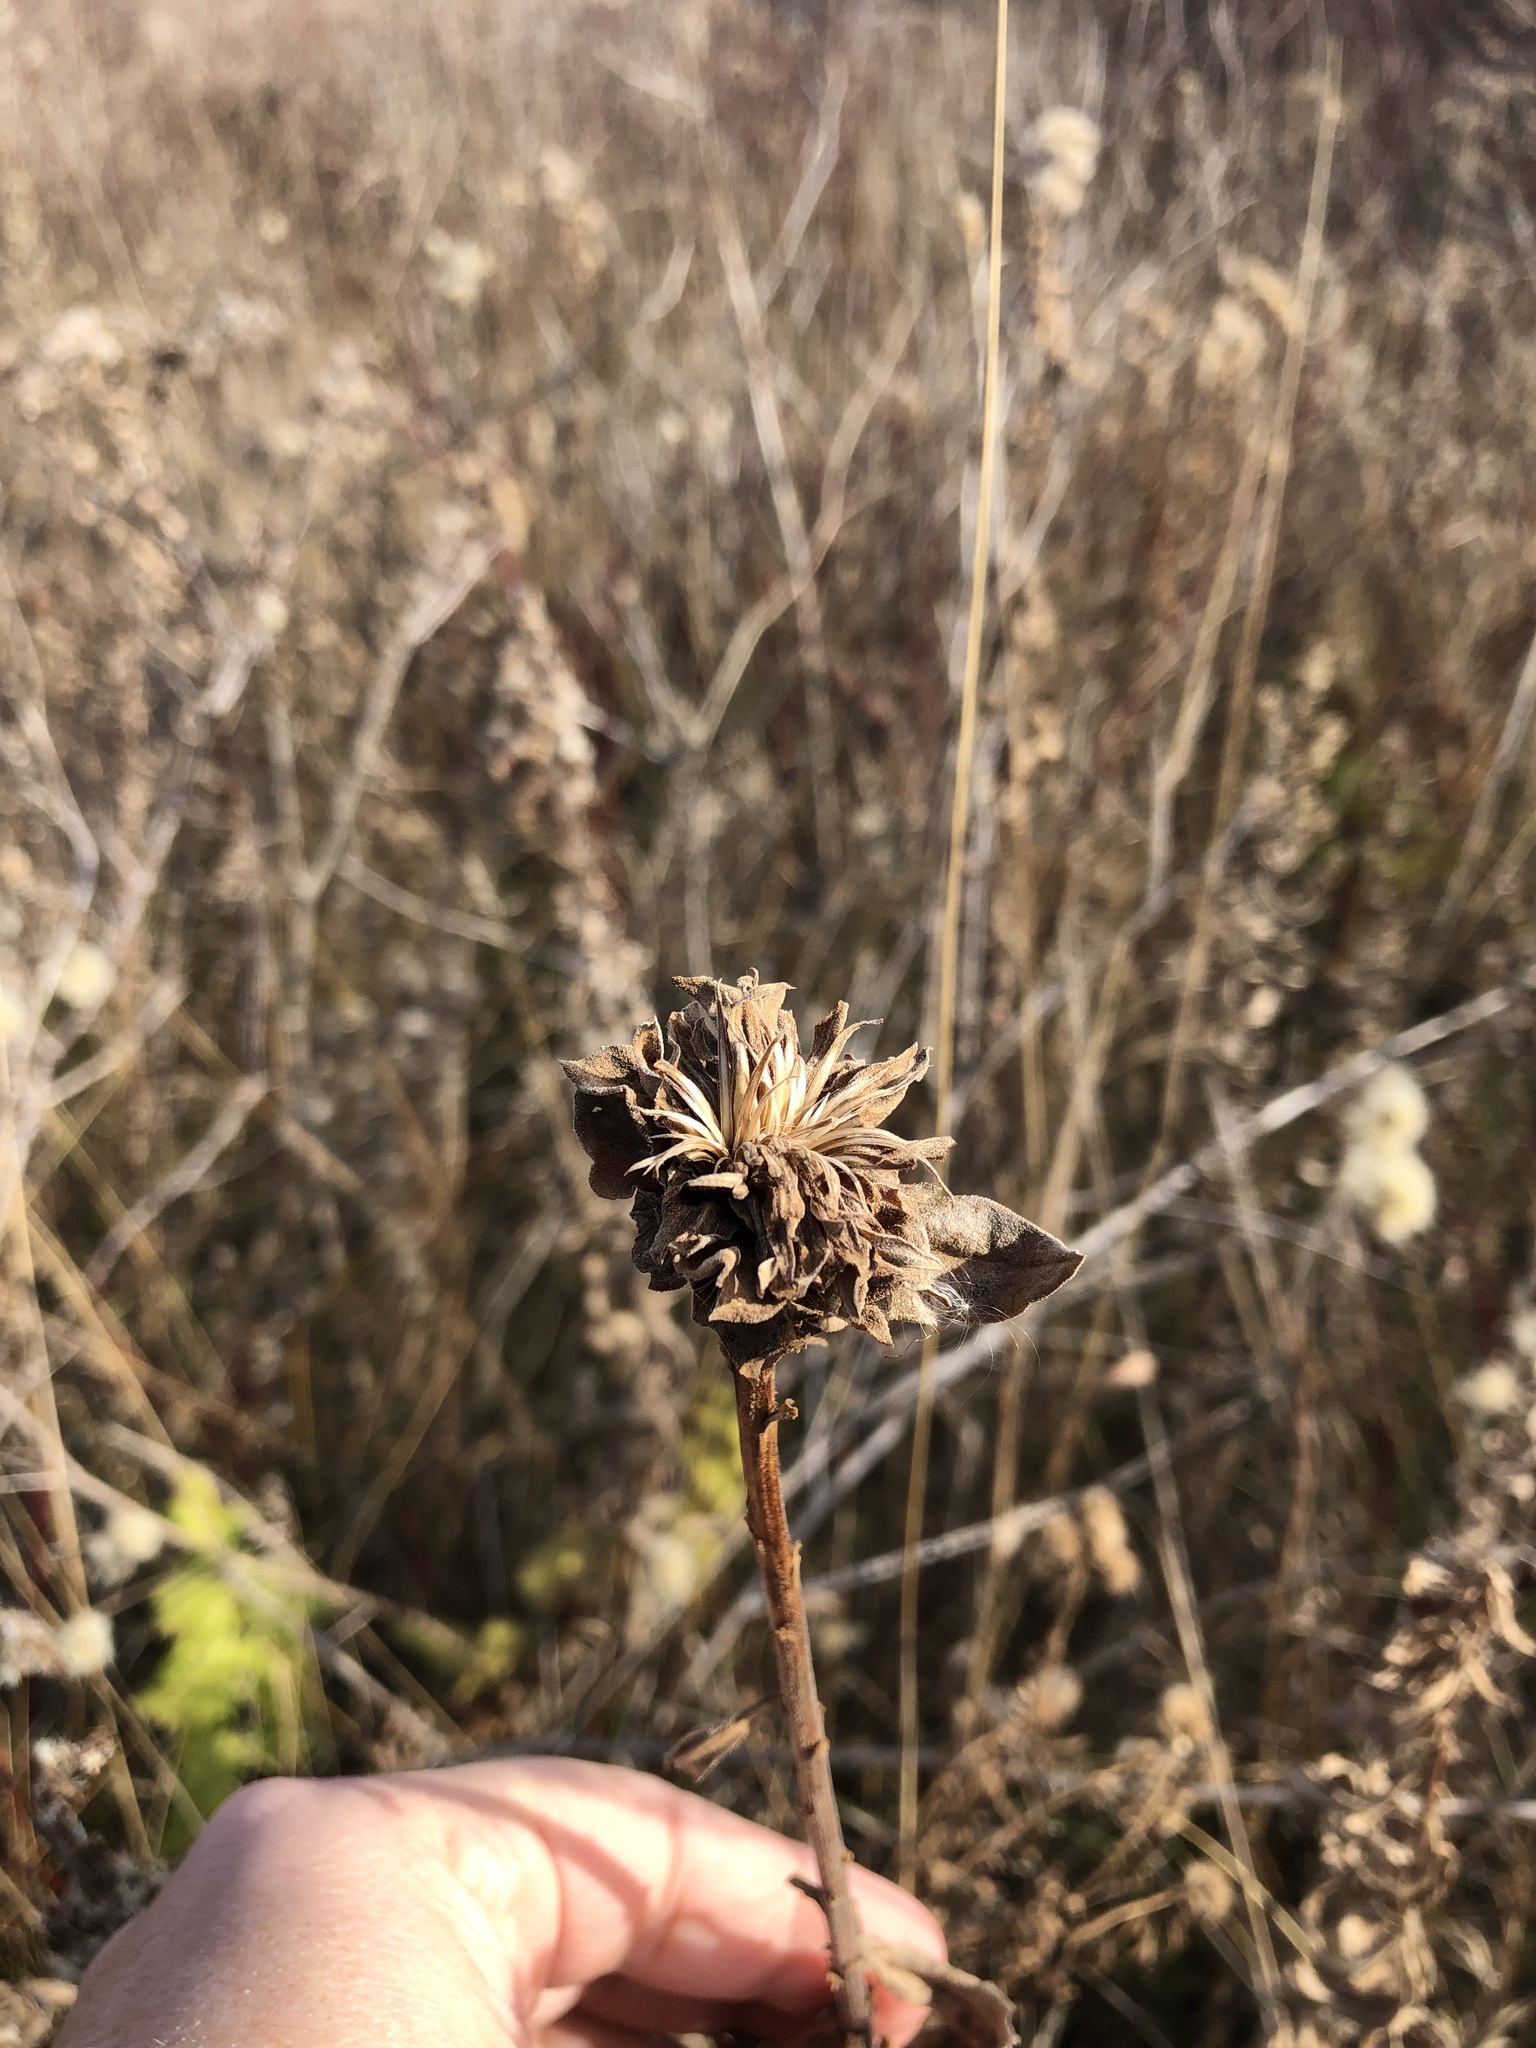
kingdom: Animalia
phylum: Arthropoda
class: Insecta
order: Diptera
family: Cecidomyiidae
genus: Rhopalomyia
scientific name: Rhopalomyia solidaginis
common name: Goldenrod bunch gall midge
